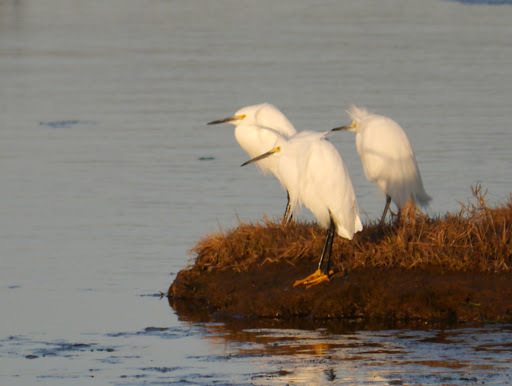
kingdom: Animalia
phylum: Chordata
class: Aves
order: Pelecaniformes
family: Ardeidae
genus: Egretta
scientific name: Egretta thula
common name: Snowy egret
